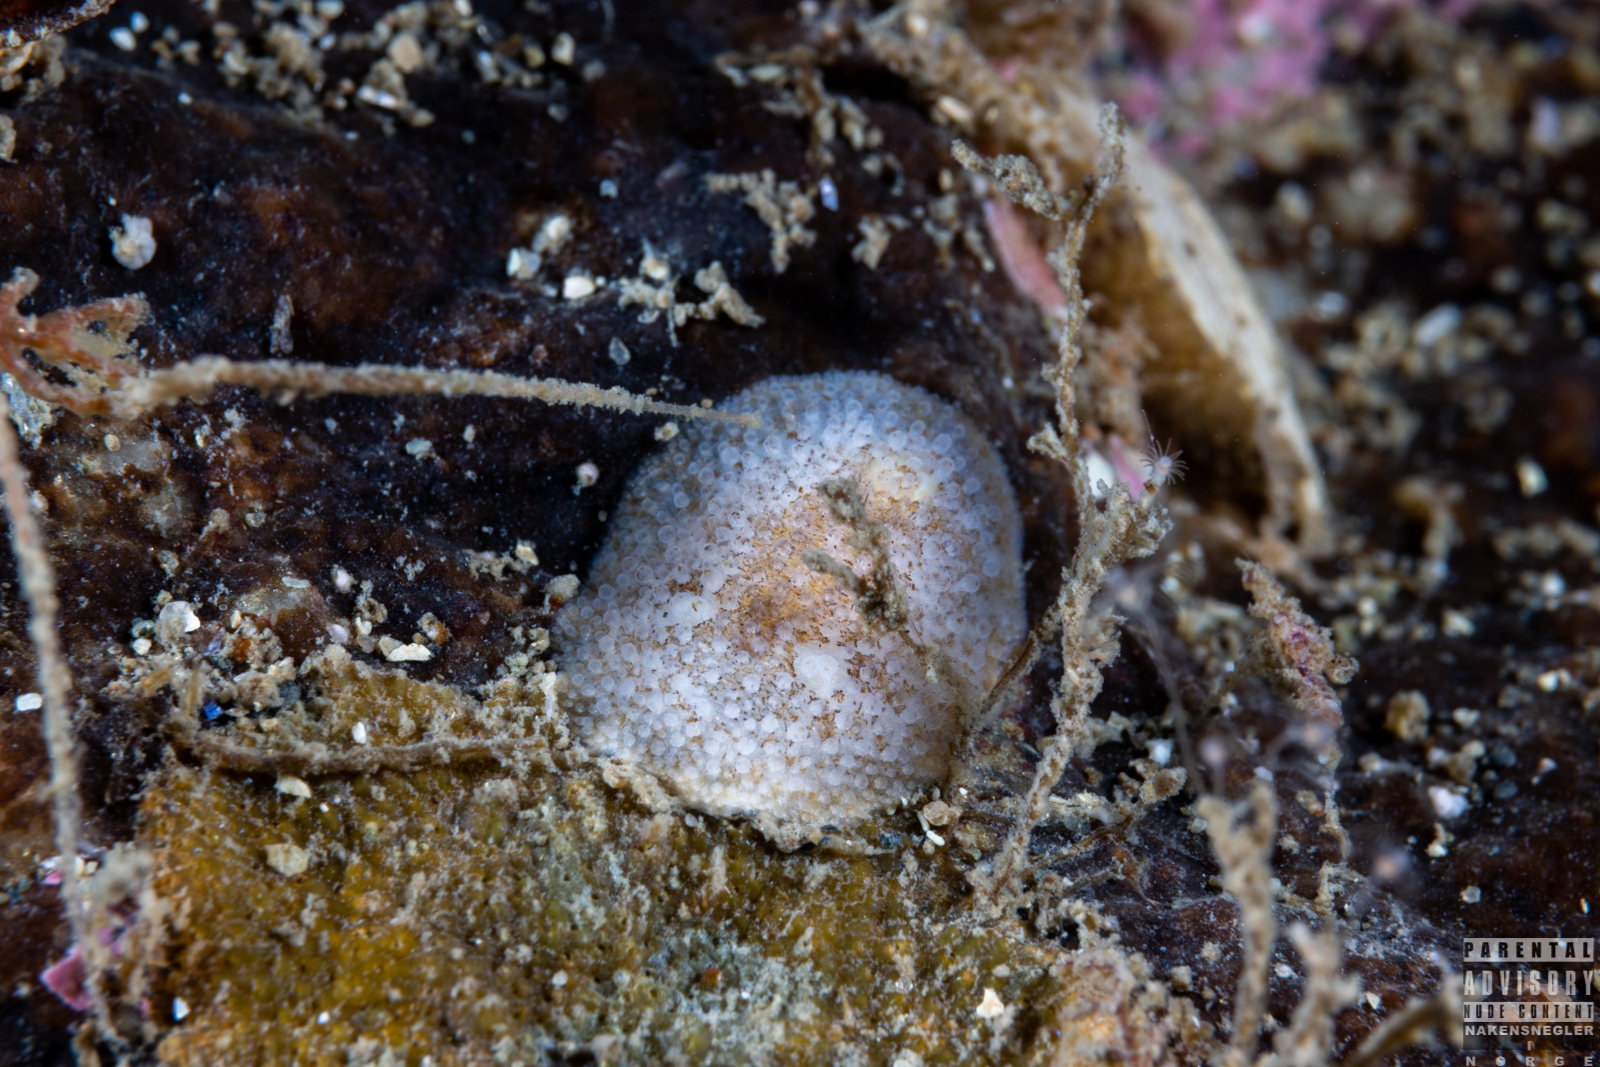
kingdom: Animalia
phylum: Mollusca
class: Gastropoda
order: Nudibranchia
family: Onchidorididae
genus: Atalodoris
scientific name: Atalodoris sparsa
